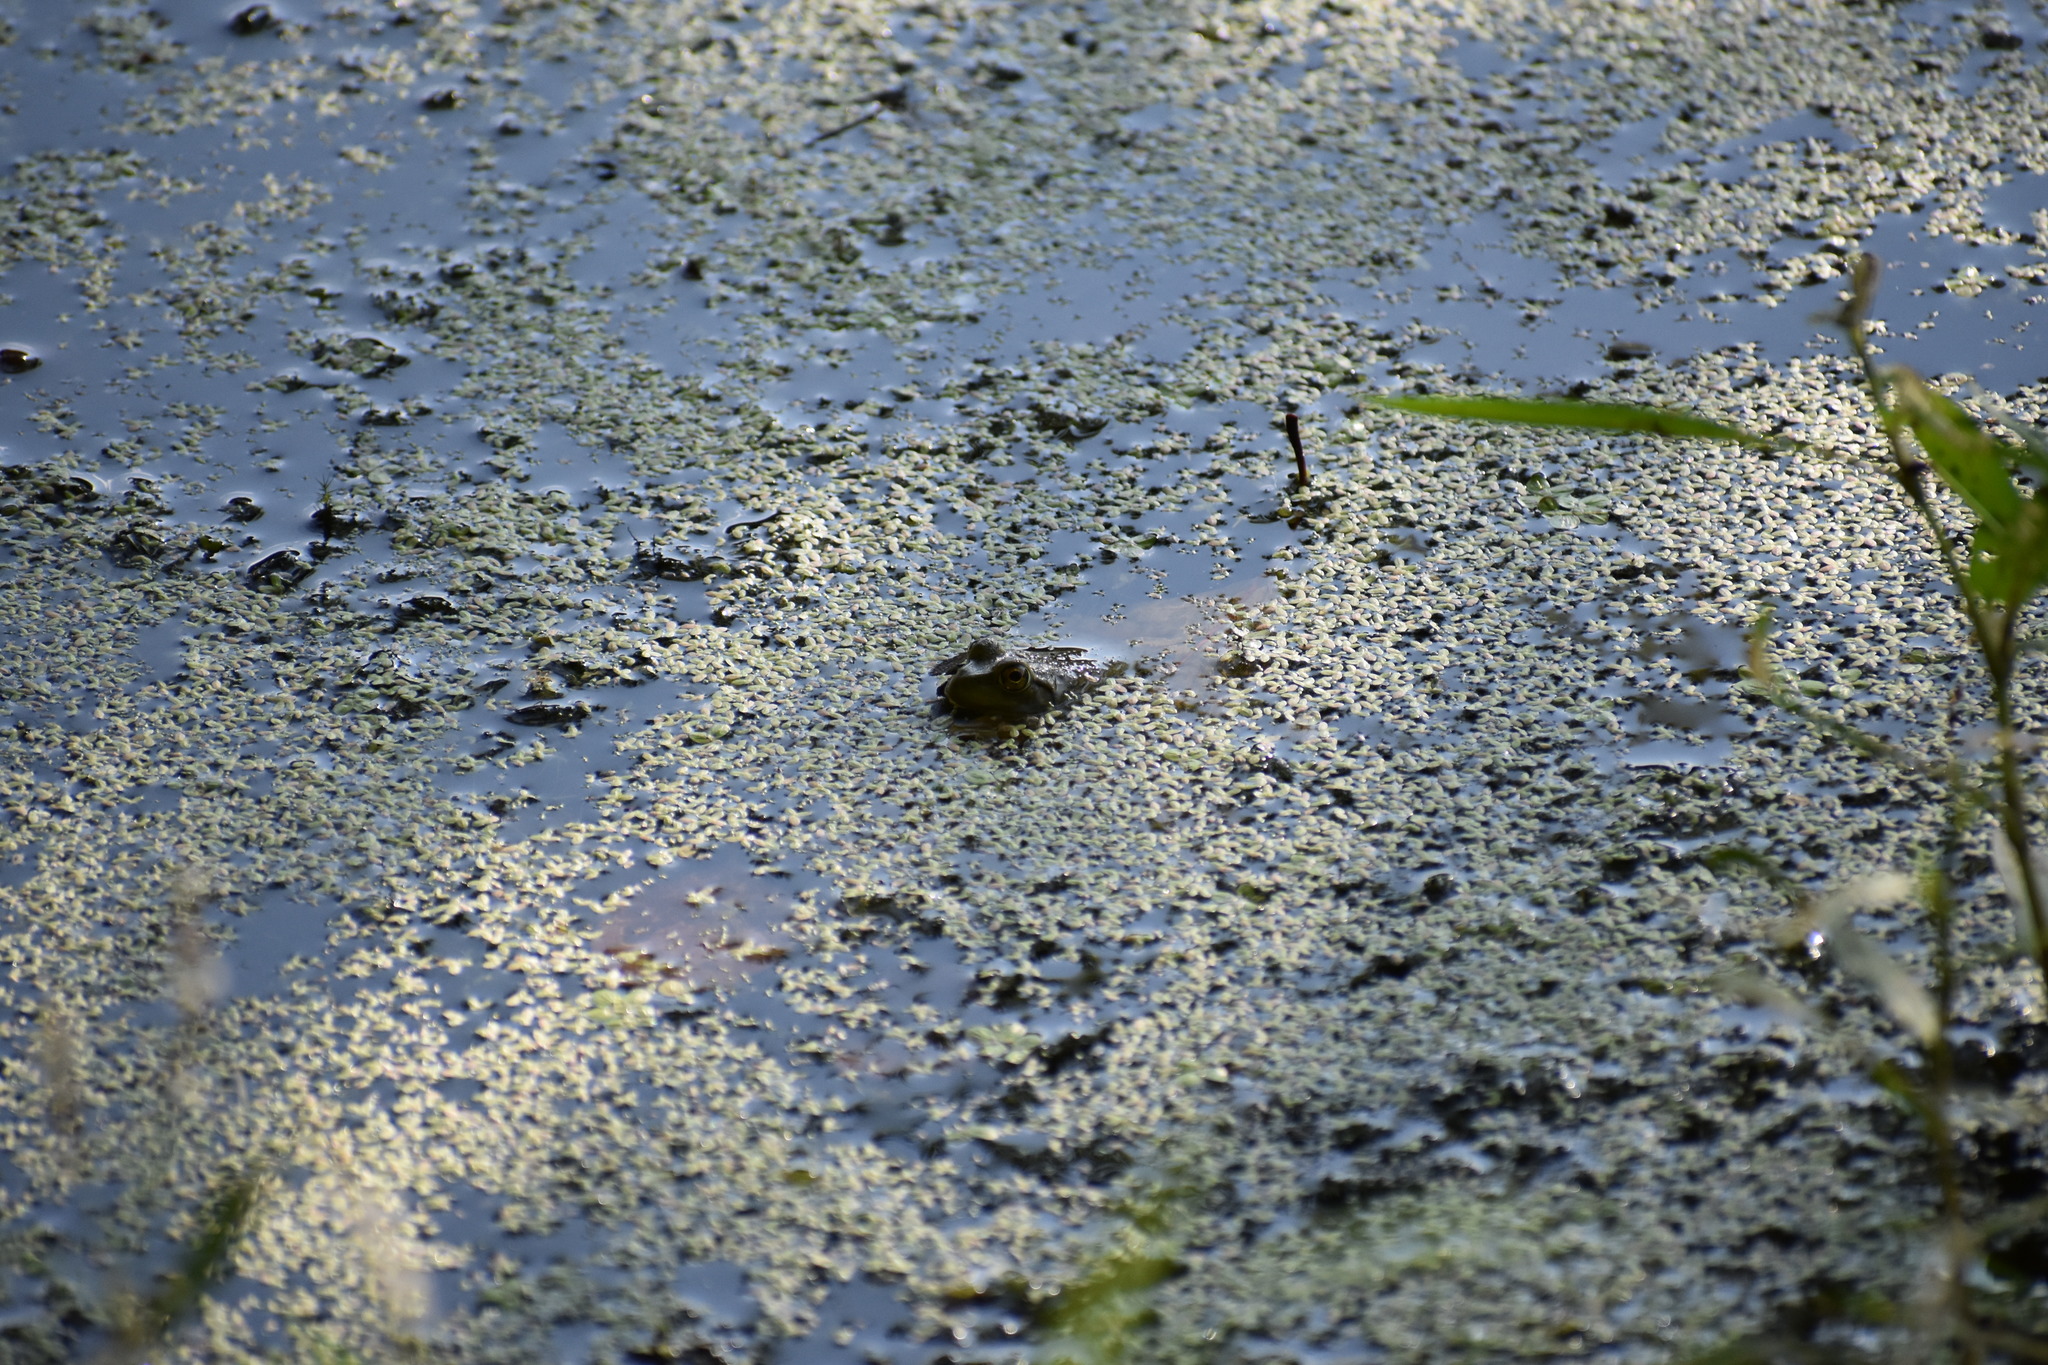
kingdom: Animalia
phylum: Chordata
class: Amphibia
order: Anura
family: Ranidae
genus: Lithobates
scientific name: Lithobates catesbeianus
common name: American bullfrog
